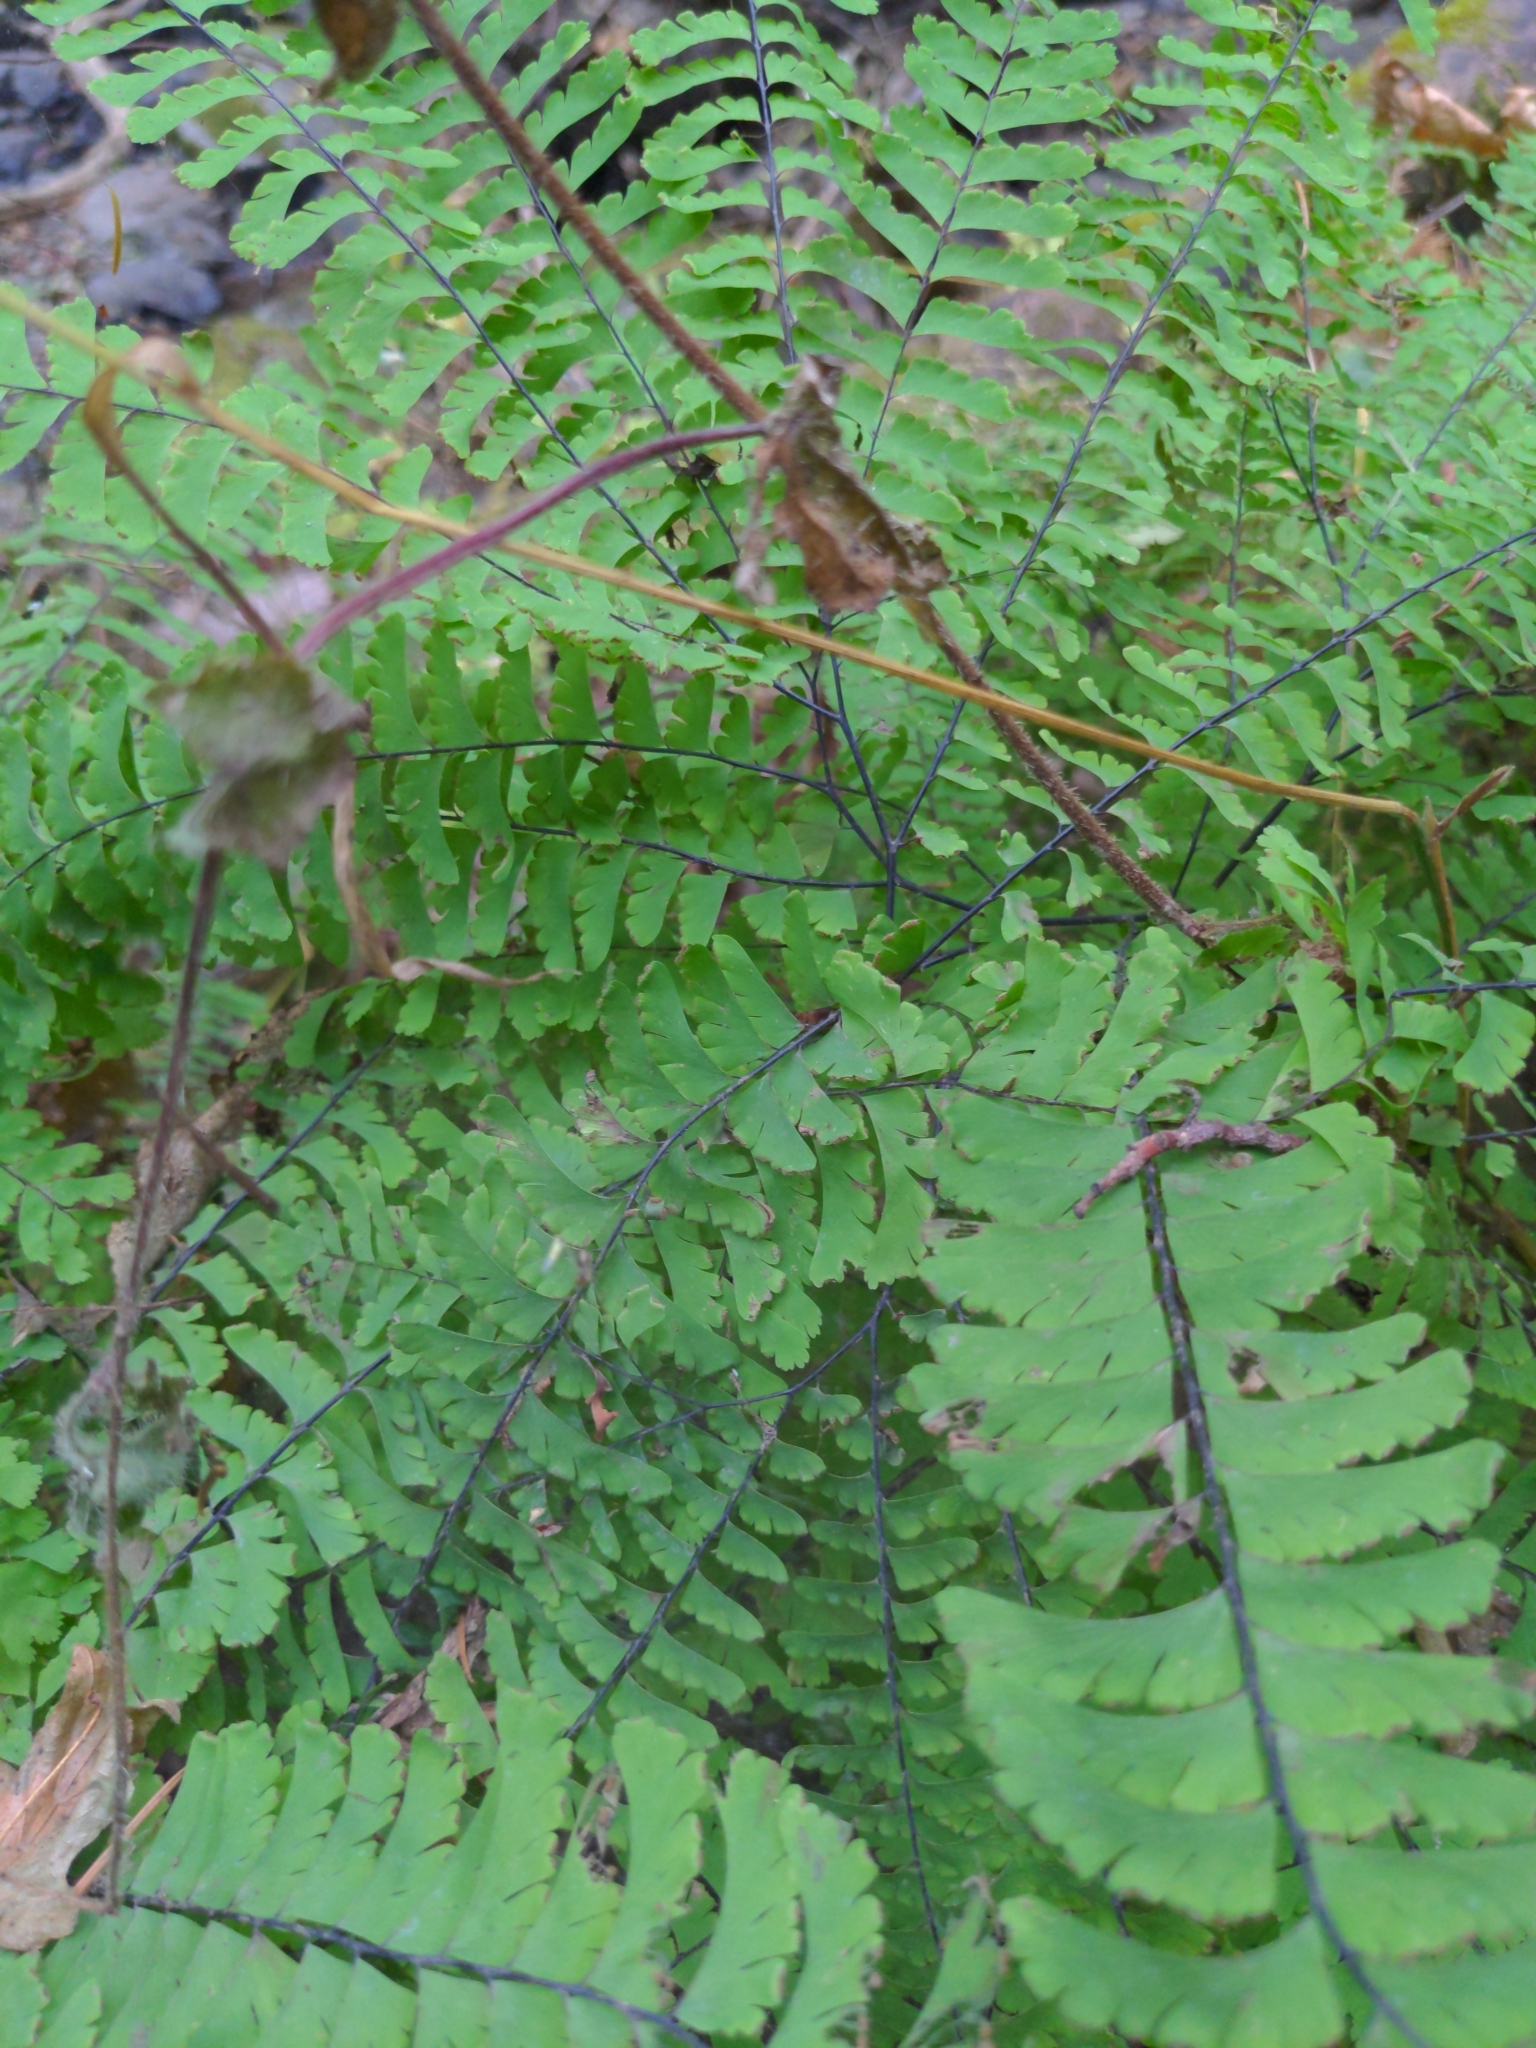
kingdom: Plantae
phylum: Tracheophyta
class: Polypodiopsida
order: Polypodiales
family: Pteridaceae
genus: Adiantum
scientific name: Adiantum aleuticum
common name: Aleutian maidenhair fern
